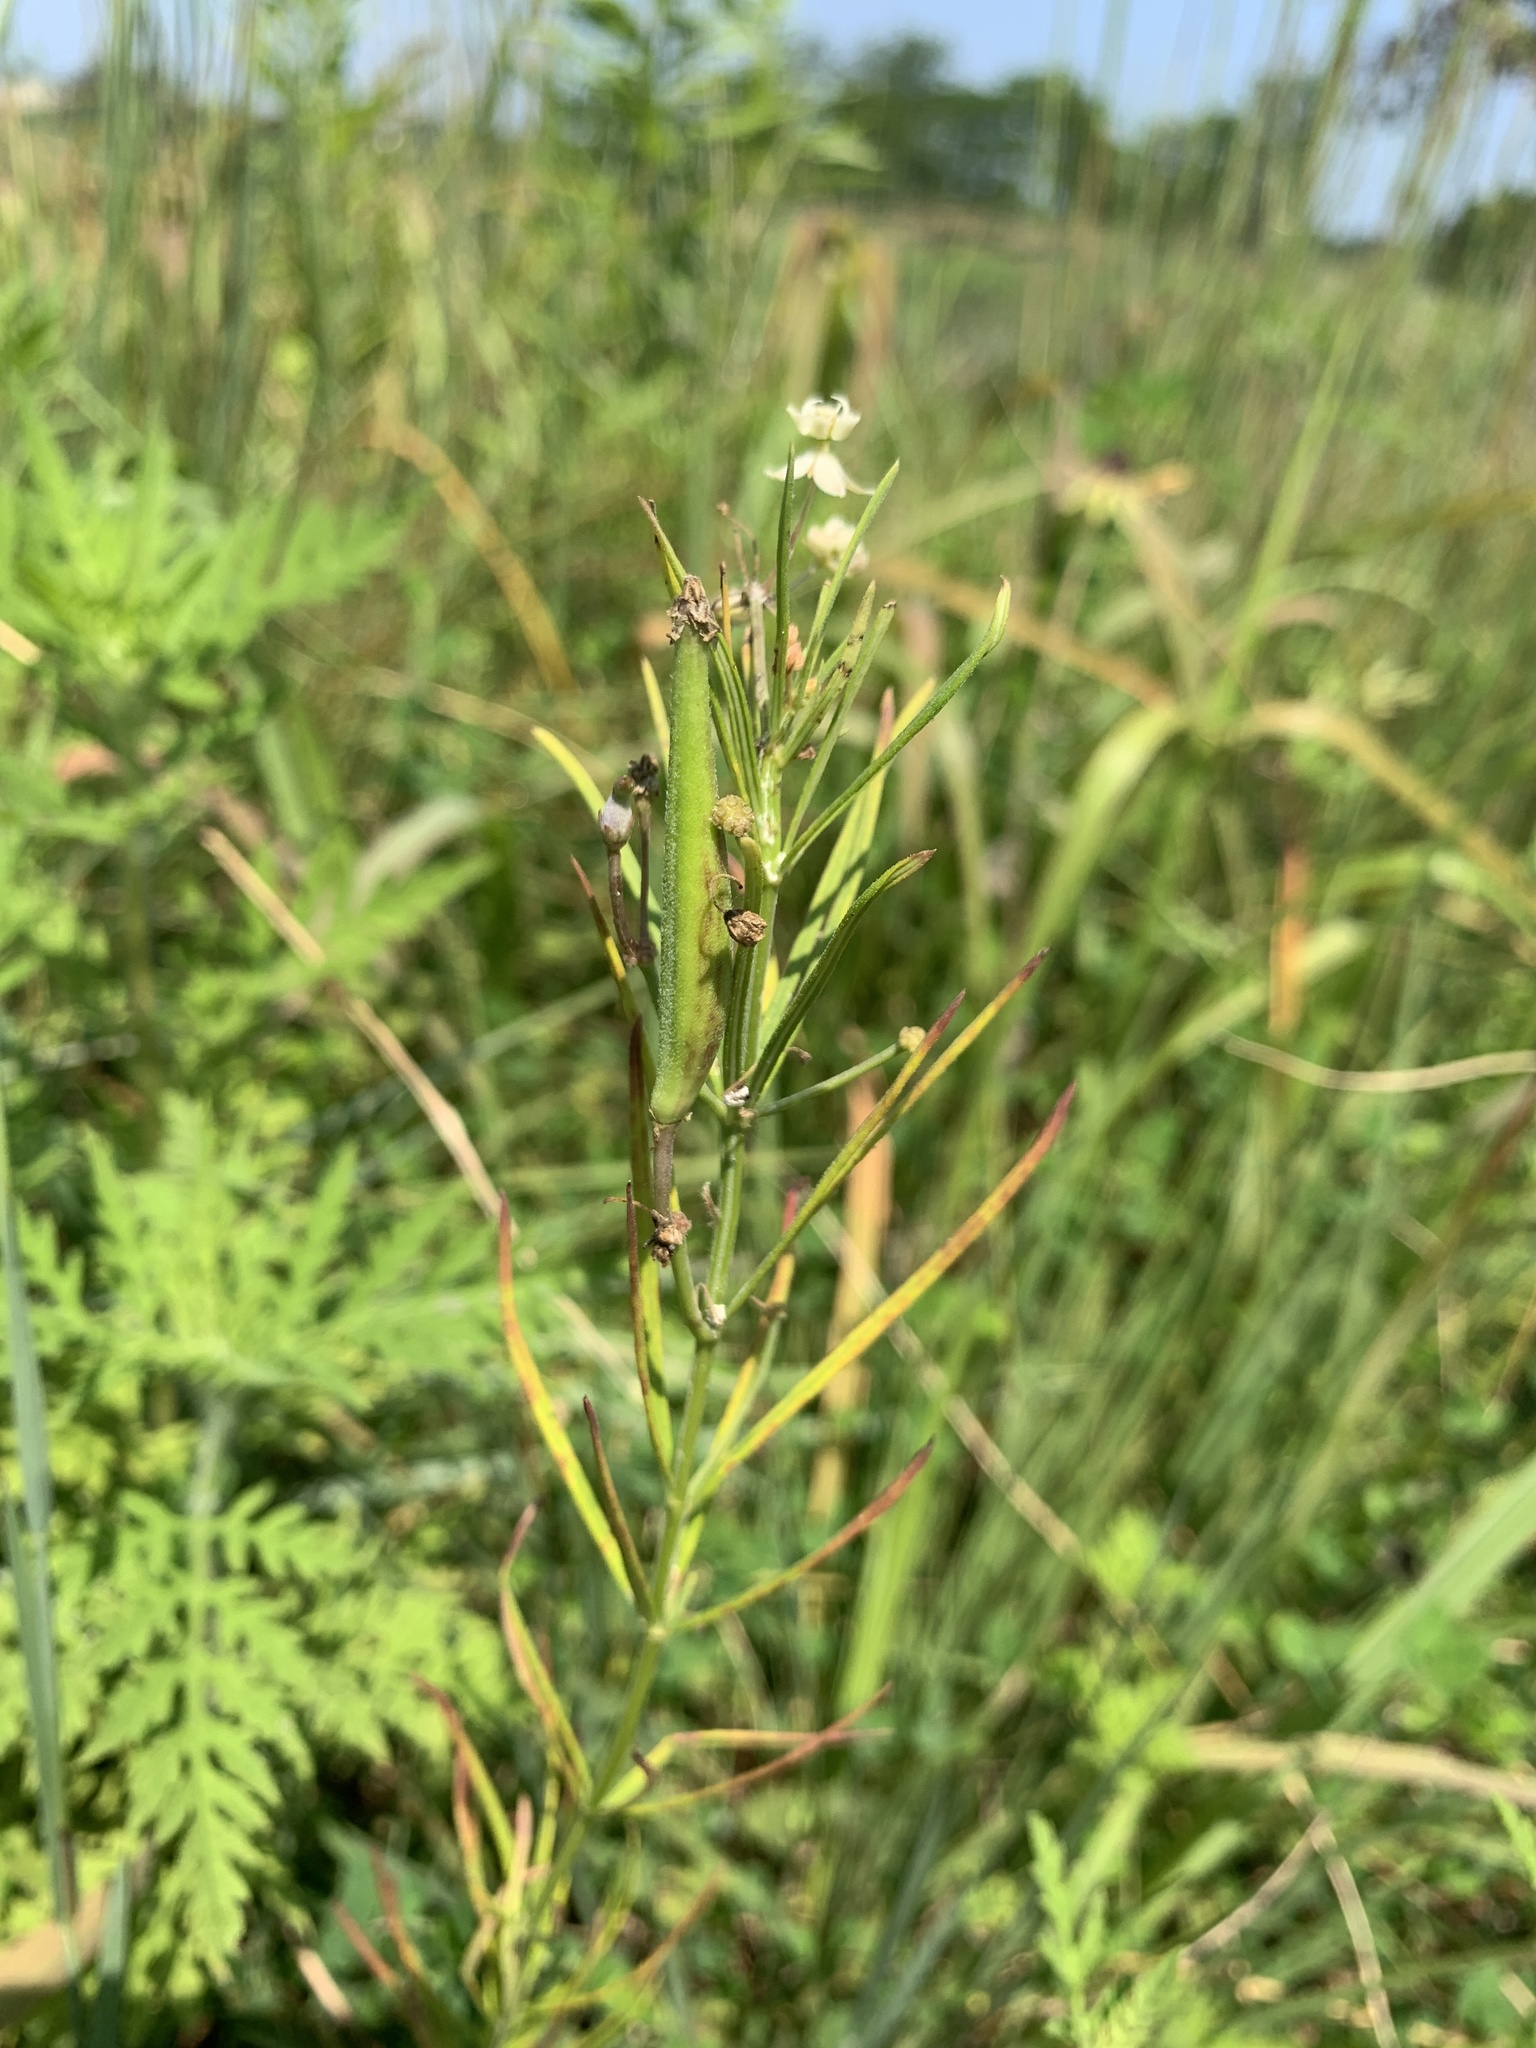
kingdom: Plantae
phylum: Tracheophyta
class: Magnoliopsida
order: Gentianales
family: Apocynaceae
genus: Asclepias
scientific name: Asclepias verticillata
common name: Eastern whorled milkweed
